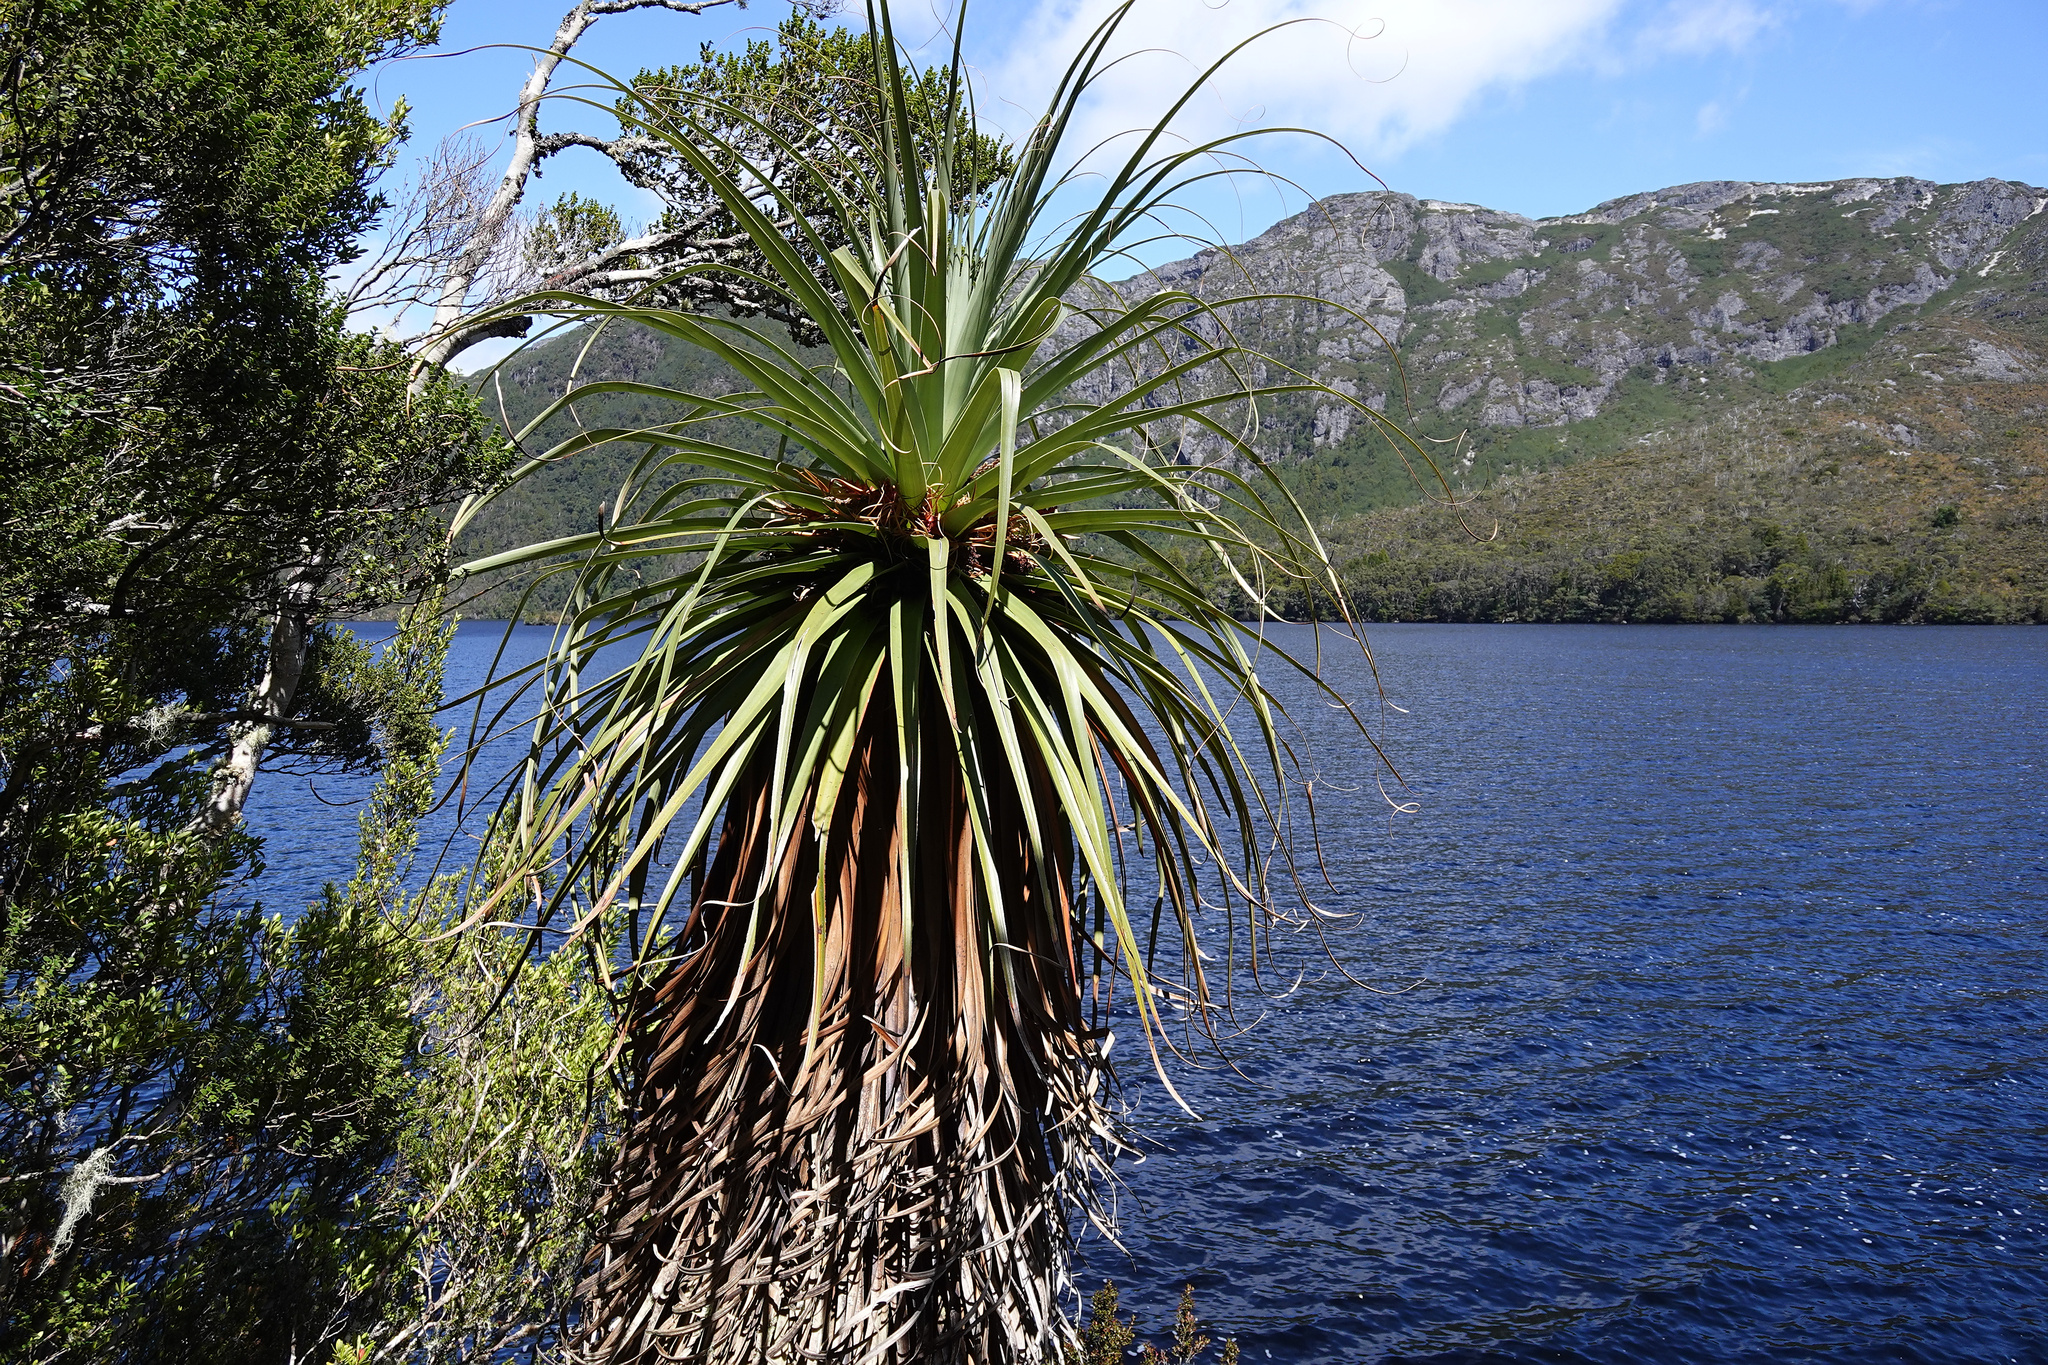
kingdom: Plantae
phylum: Tracheophyta
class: Magnoliopsida
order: Ericales
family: Ericaceae
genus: Dracophyllum
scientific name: Dracophyllum pandanifolium
